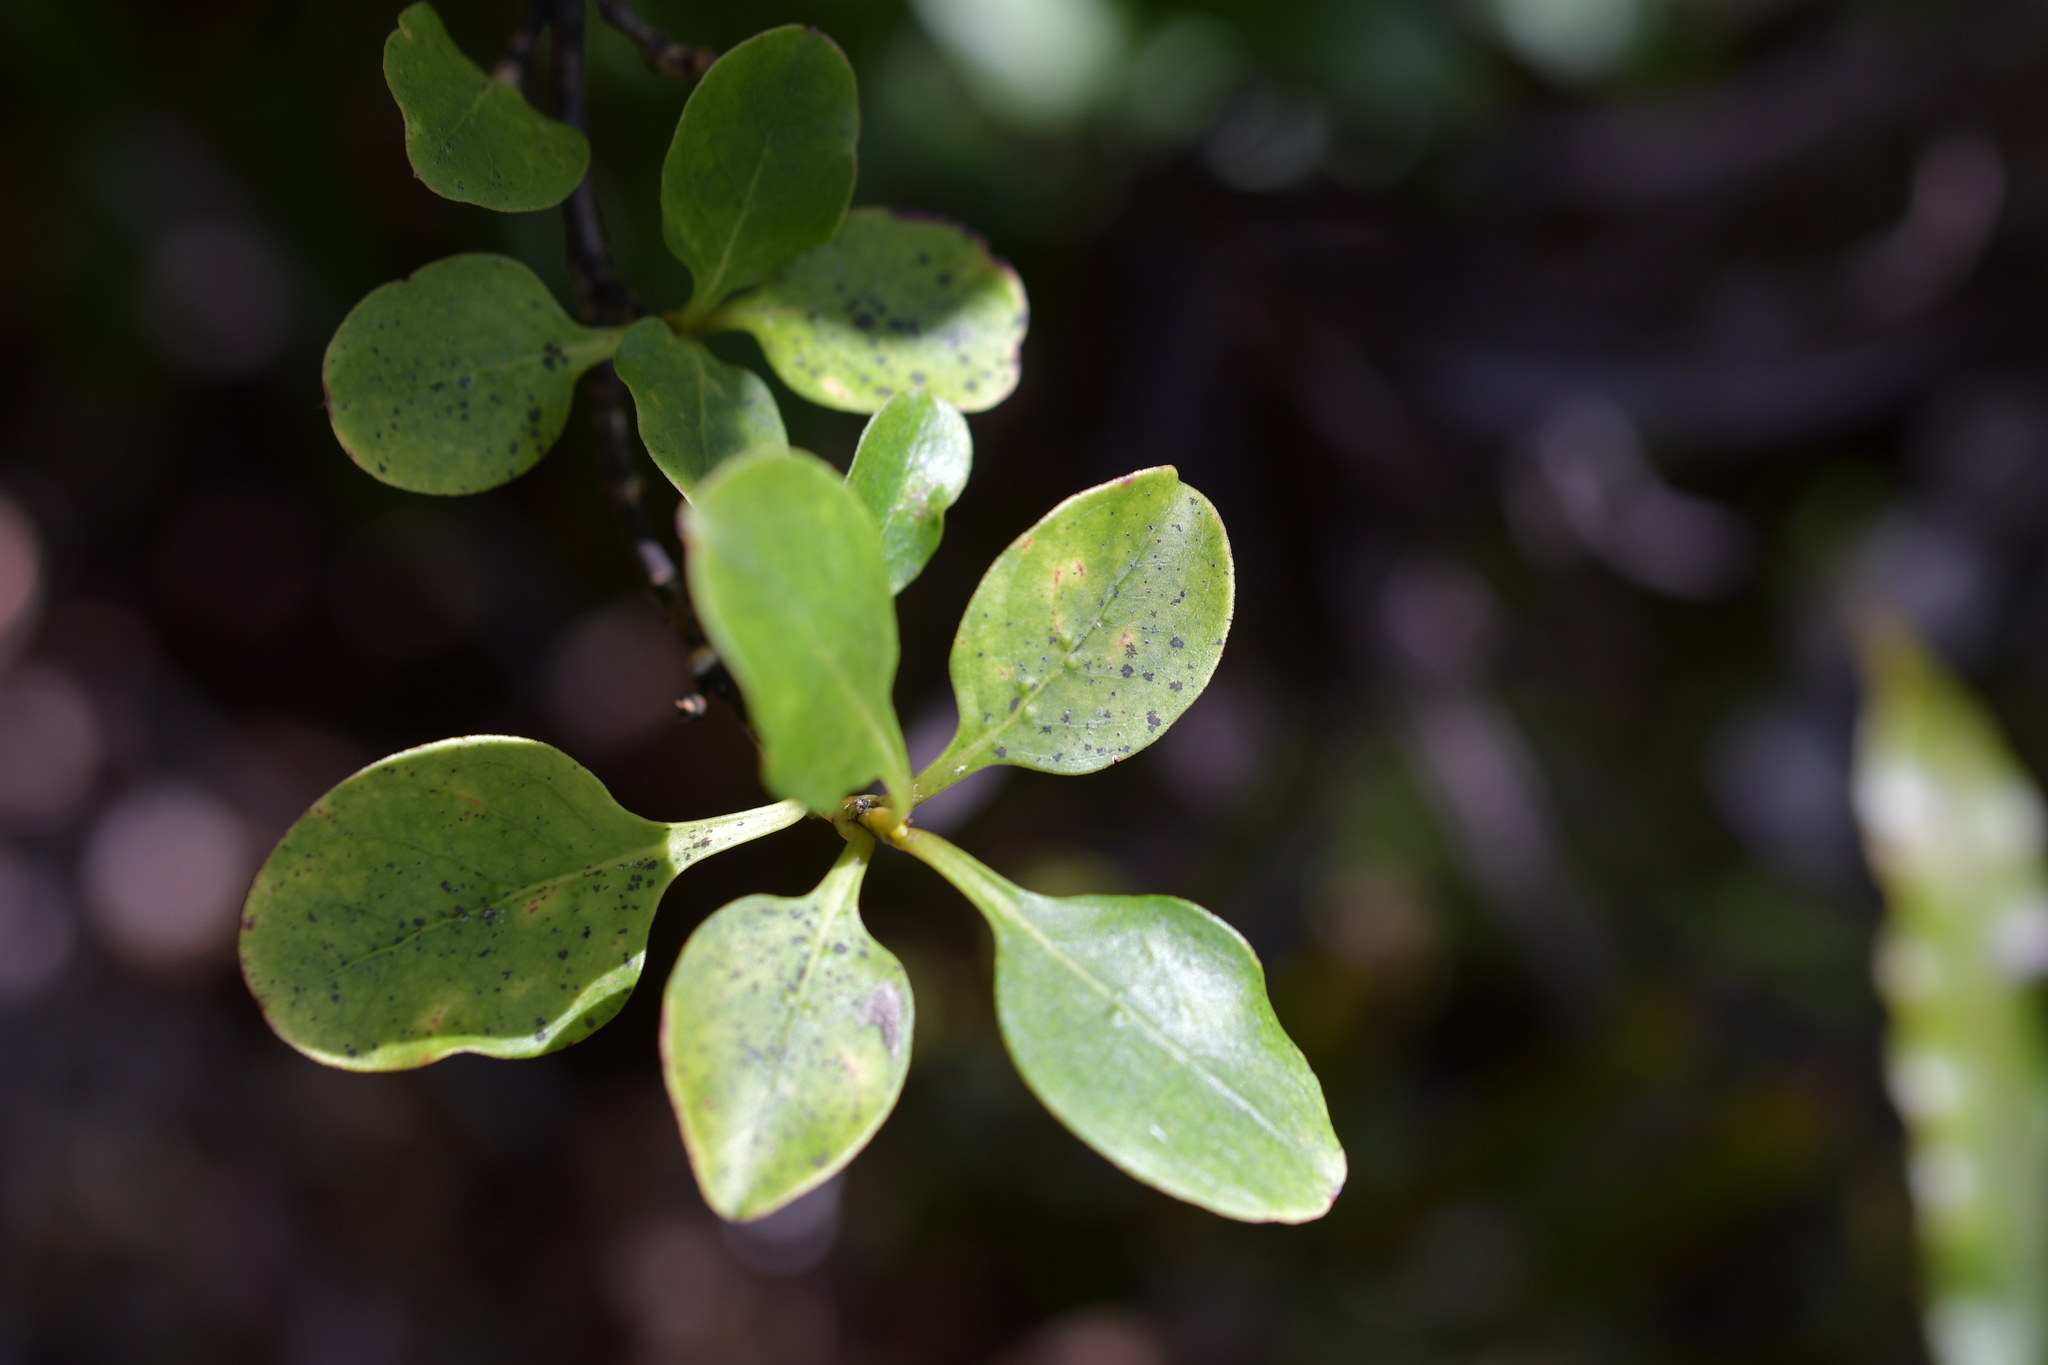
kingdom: Plantae
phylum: Tracheophyta
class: Magnoliopsida
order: Gentianales
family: Rubiaceae
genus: Coprosma
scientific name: Coprosma foetidissima
